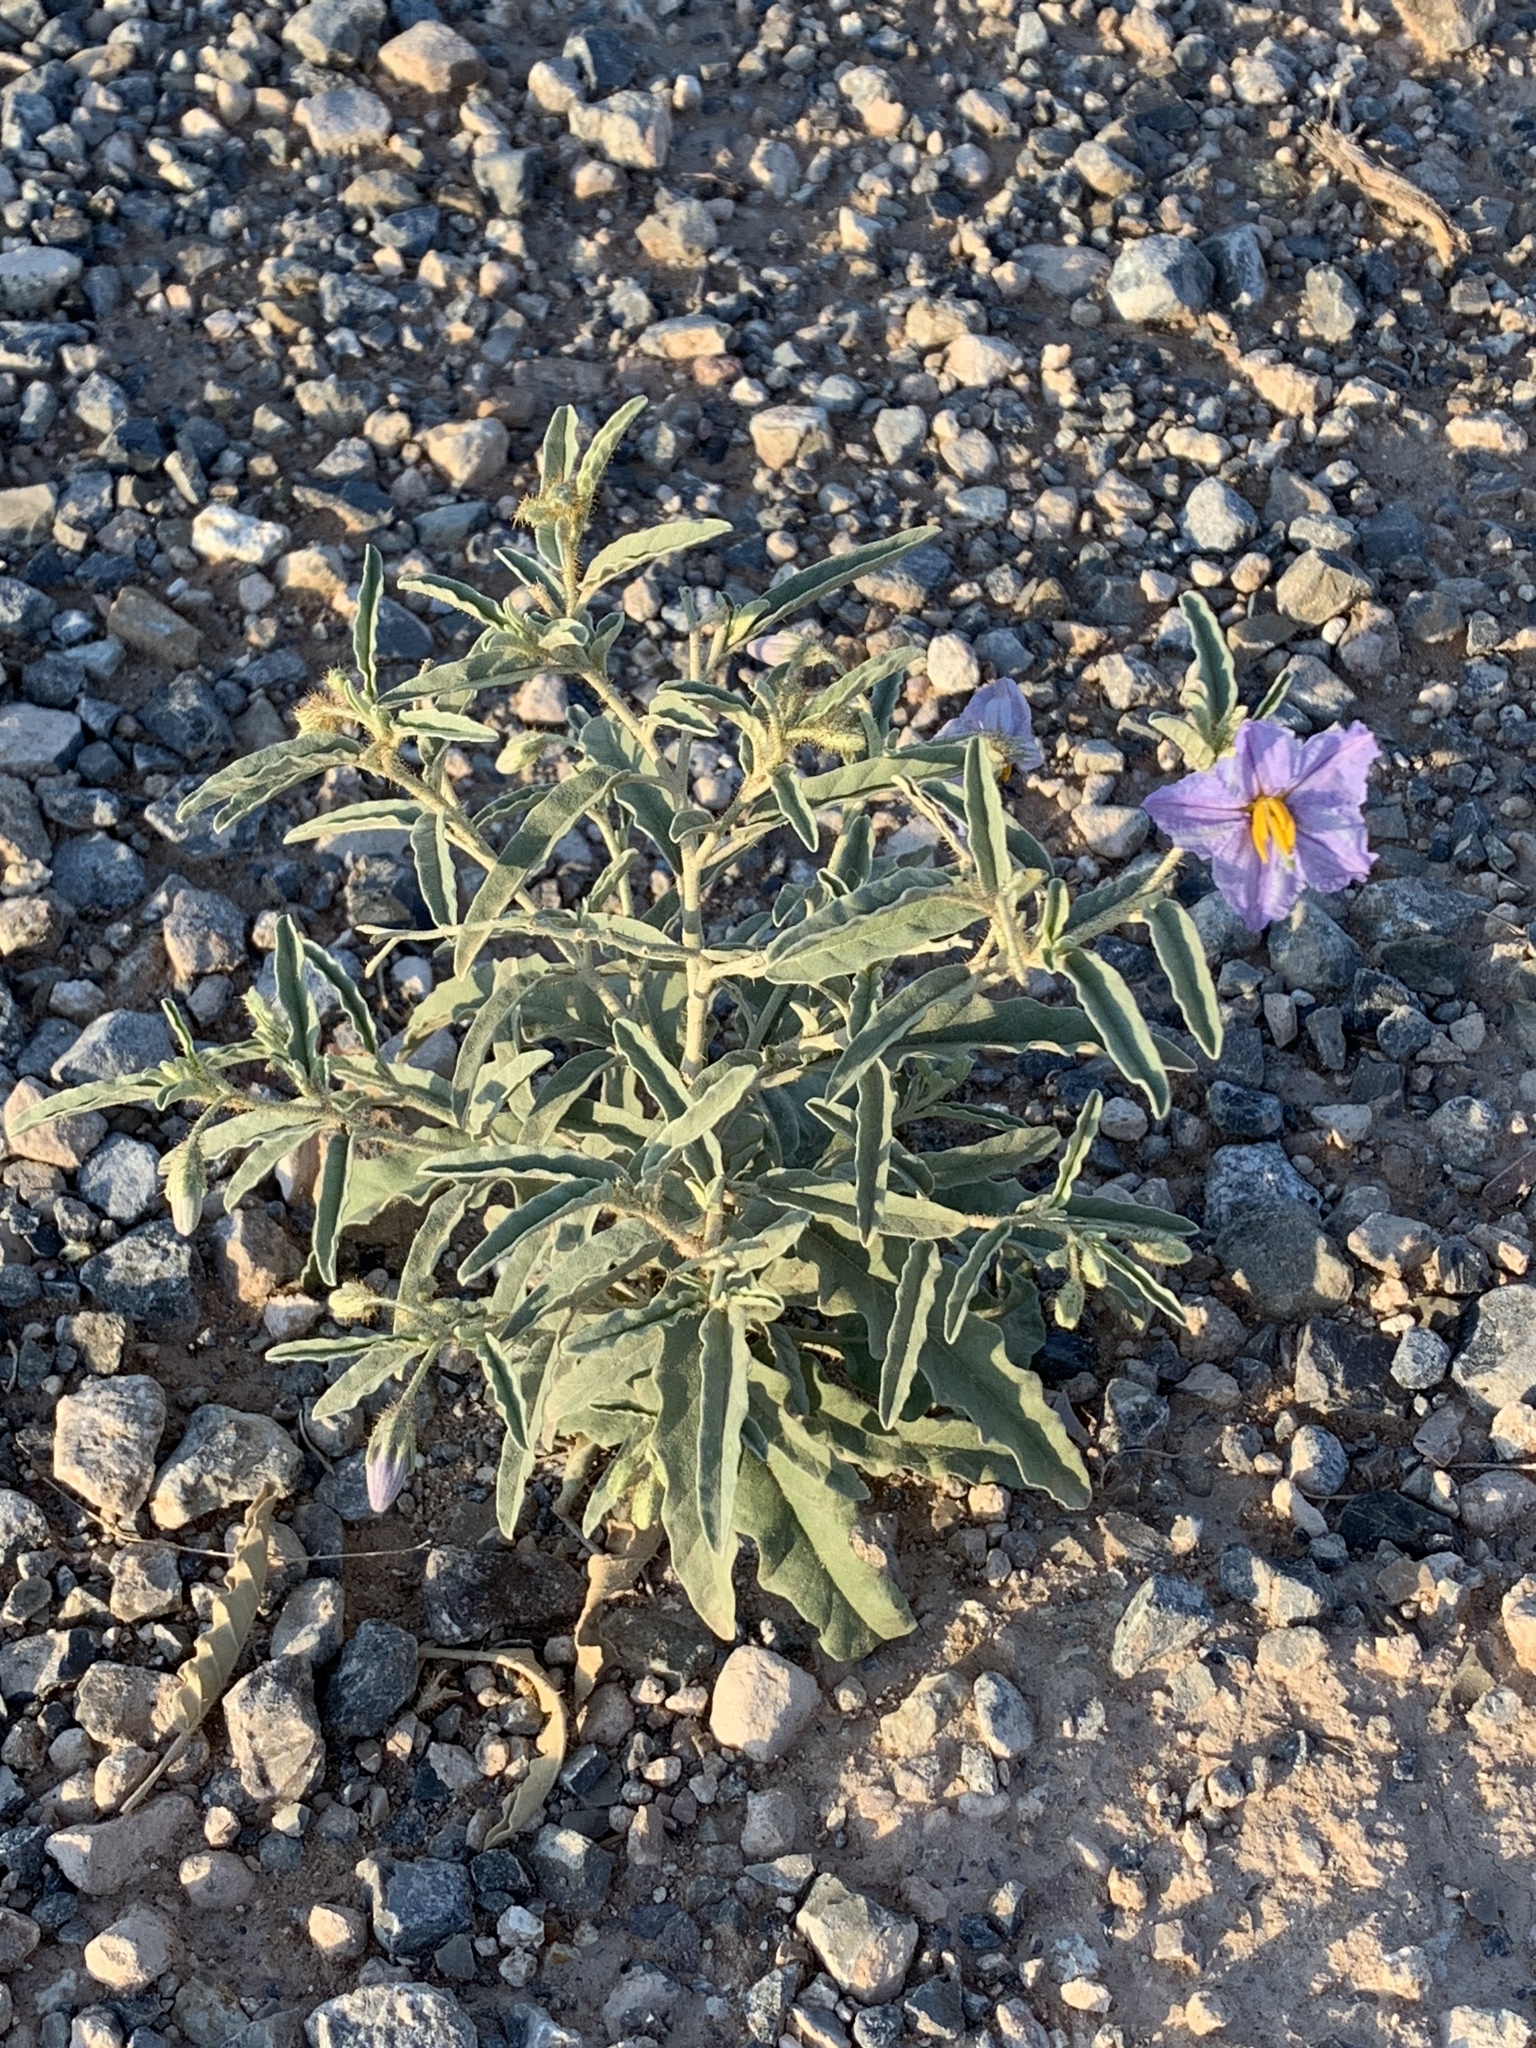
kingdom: Plantae
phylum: Tracheophyta
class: Magnoliopsida
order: Solanales
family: Solanaceae
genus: Solanum
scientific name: Solanum elaeagnifolium
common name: Silverleaf nightshade
